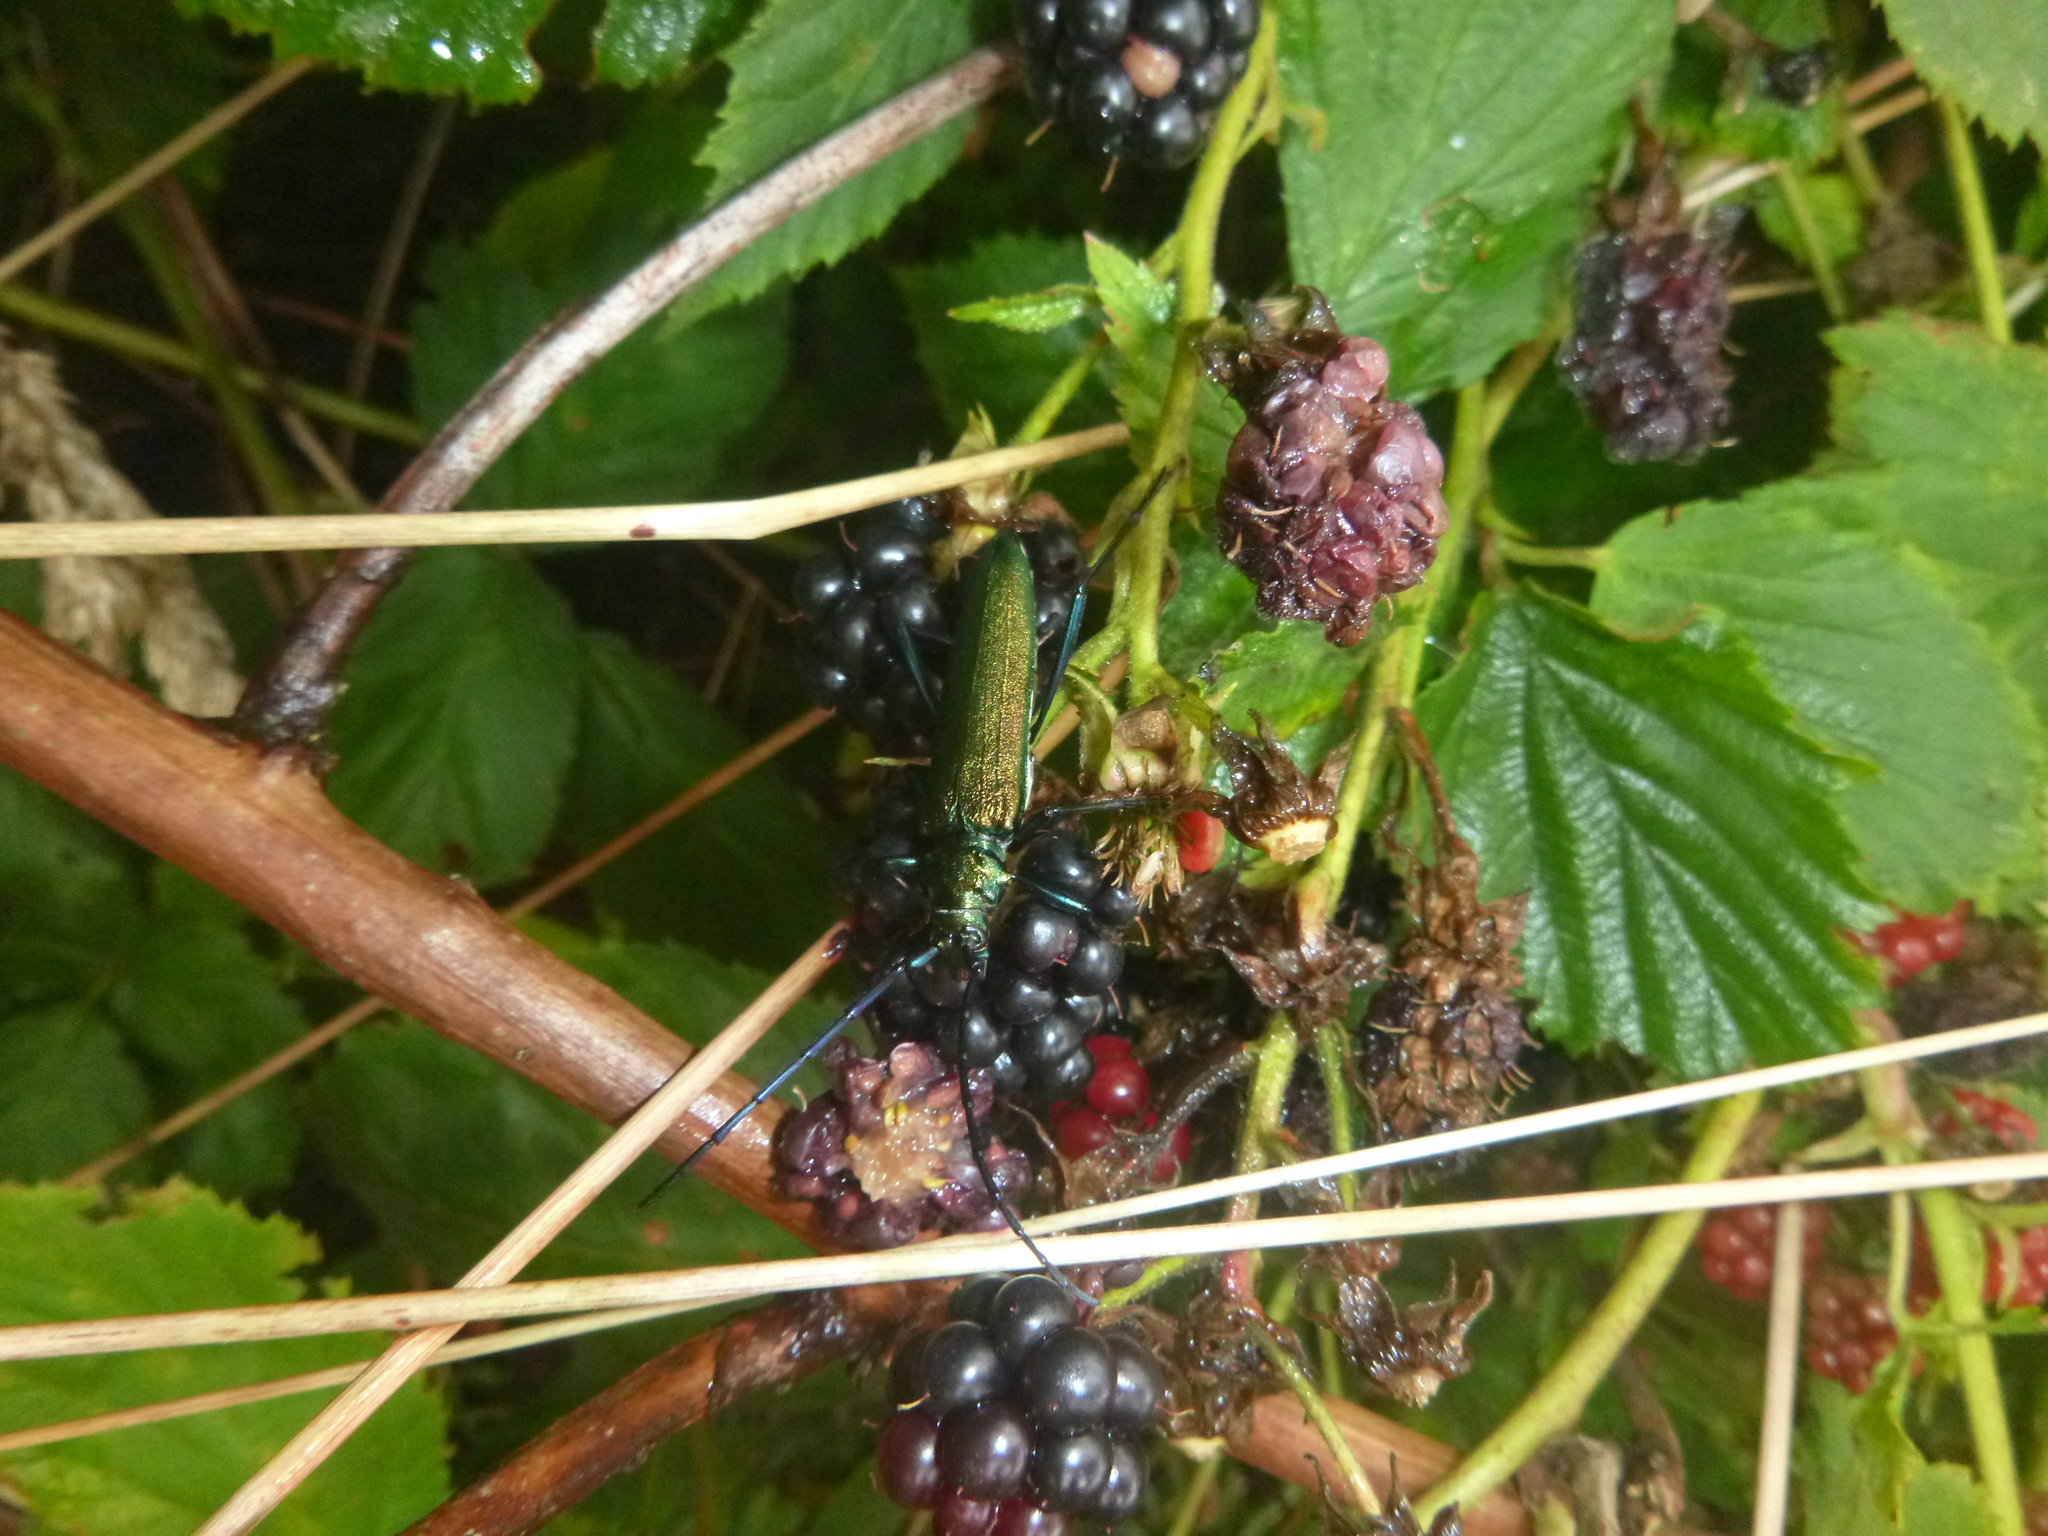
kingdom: Animalia
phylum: Arthropoda
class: Insecta
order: Coleoptera
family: Cerambycidae
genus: Aromia
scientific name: Aromia moschata
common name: Musk beetle
